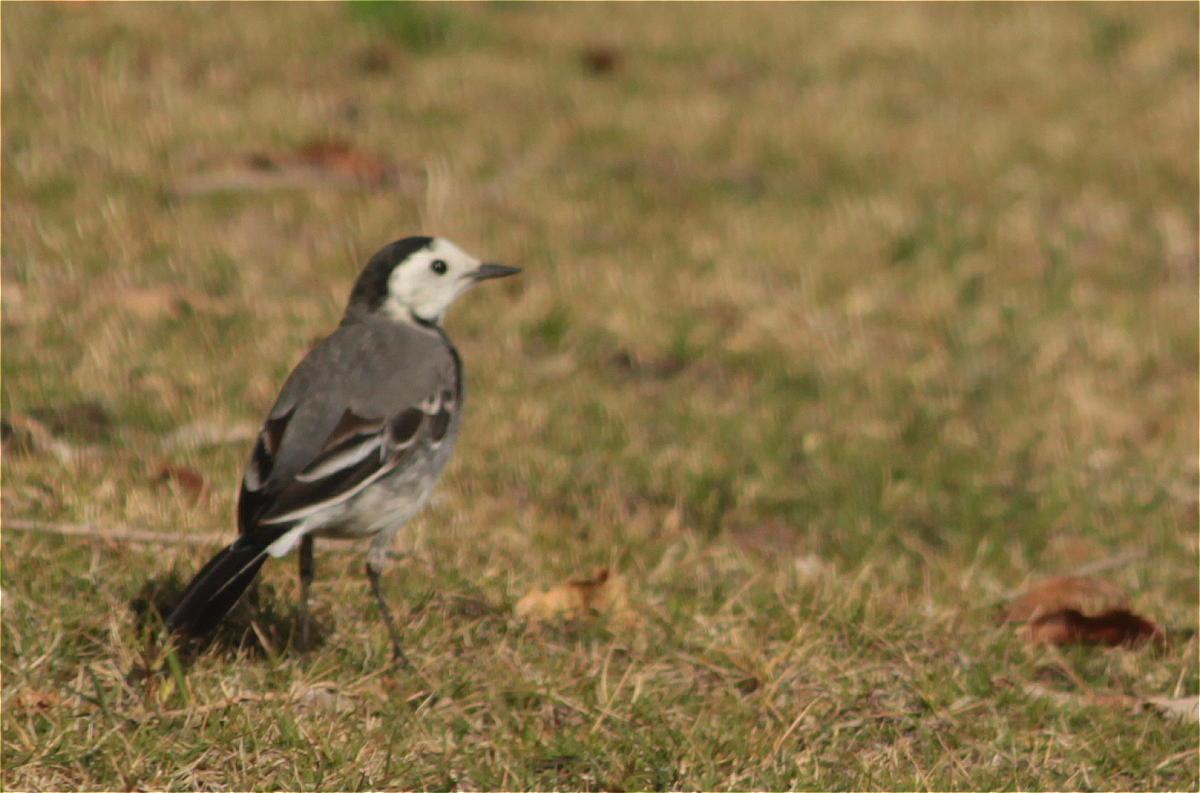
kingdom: Animalia
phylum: Chordata
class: Aves
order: Passeriformes
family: Motacillidae
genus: Motacilla
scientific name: Motacilla alba
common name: White wagtail
